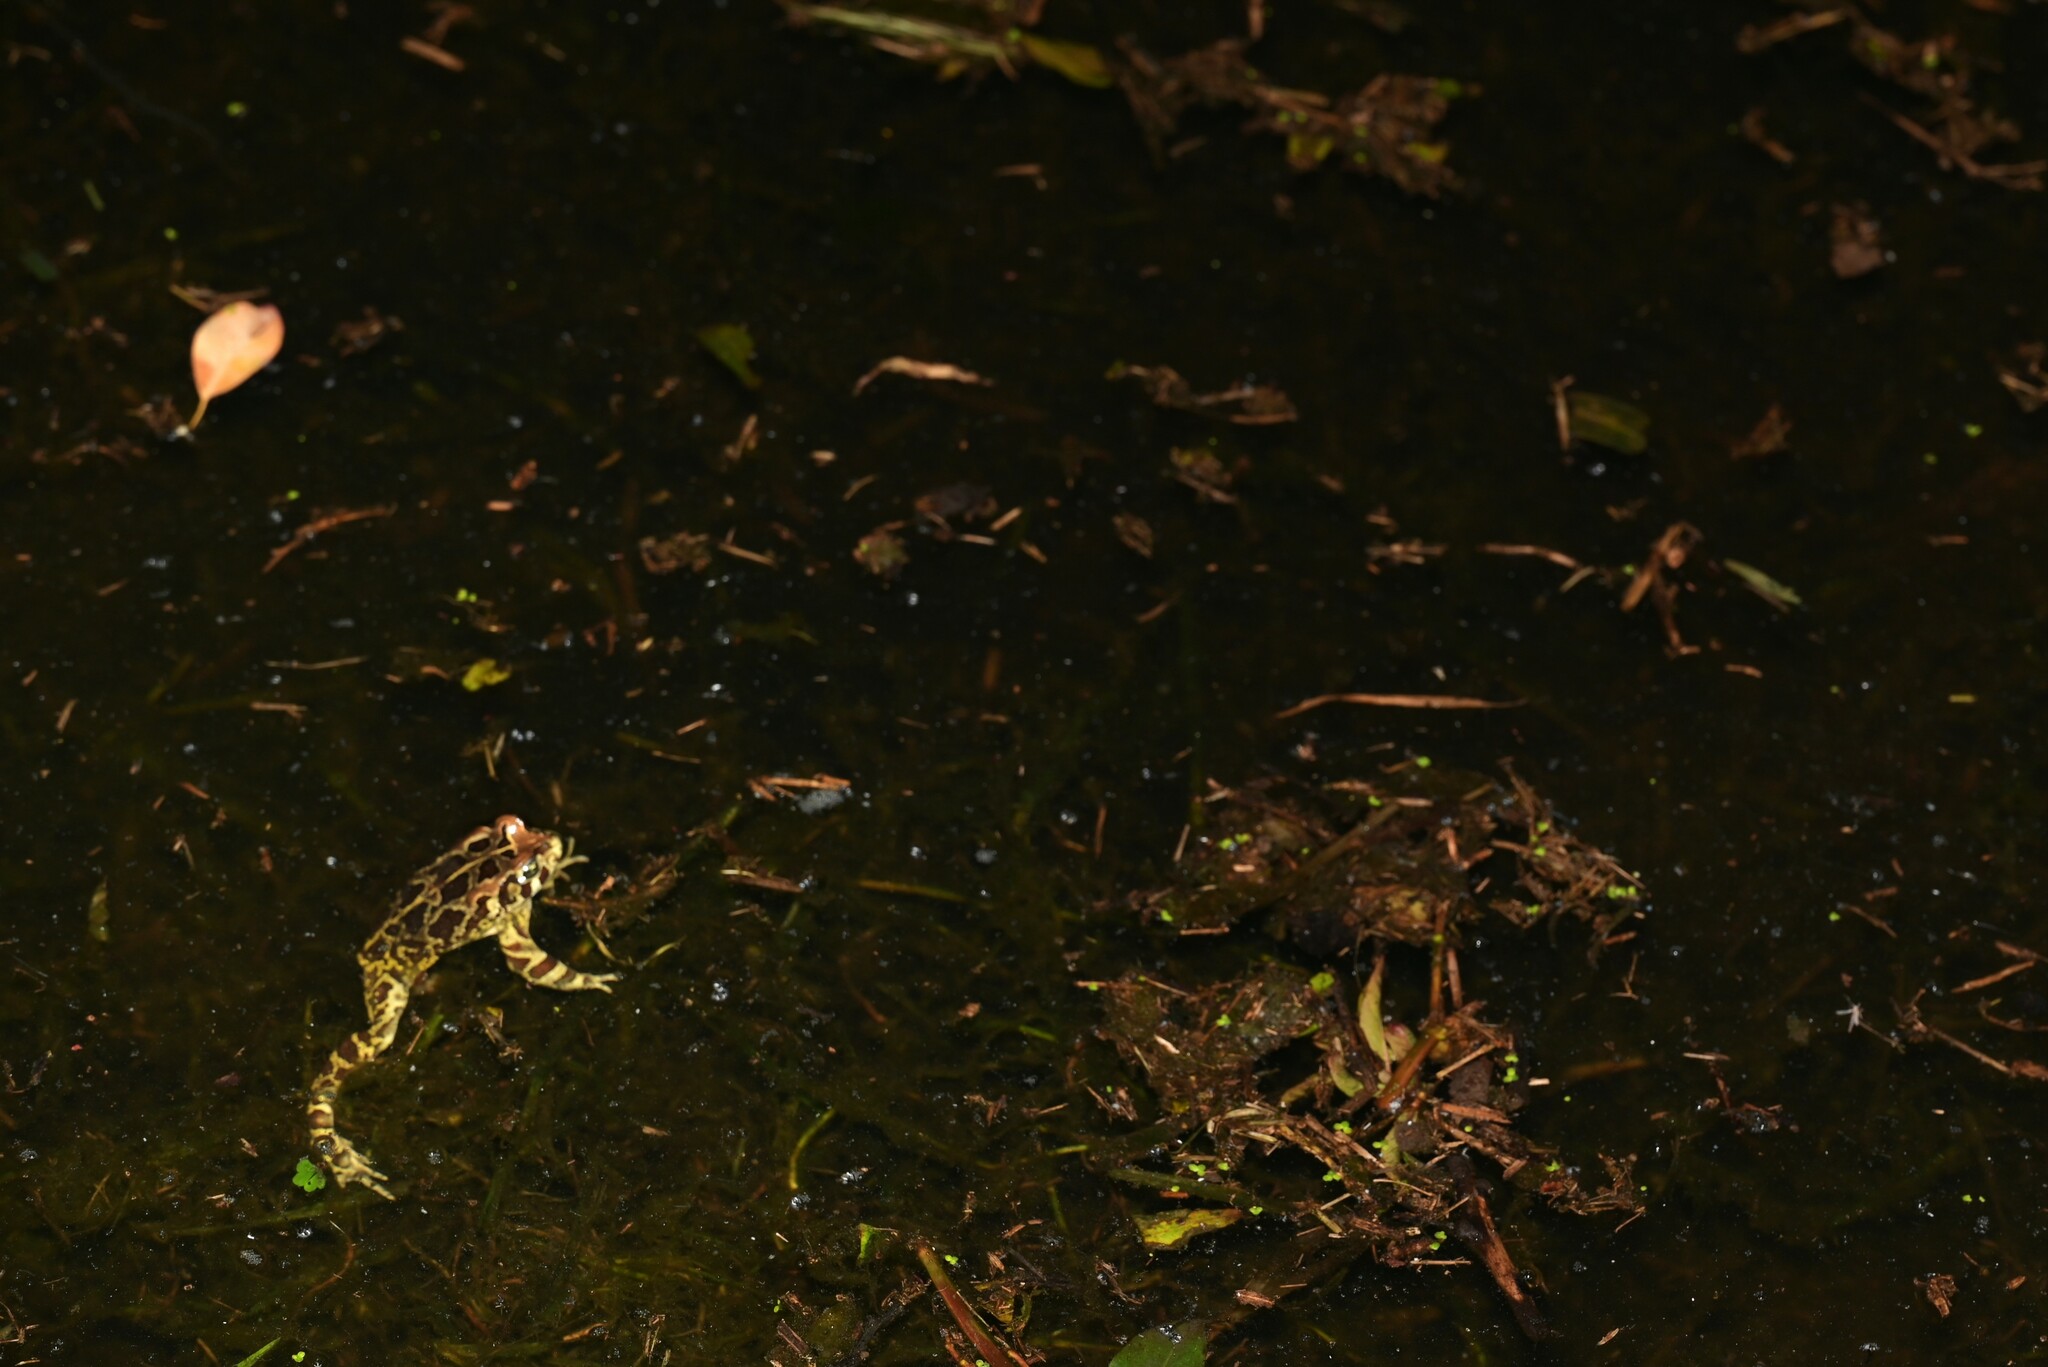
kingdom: Animalia
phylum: Chordata
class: Amphibia
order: Anura
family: Bufonidae
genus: Sclerophrys
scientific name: Sclerophrys pantherina
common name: Panther toad
